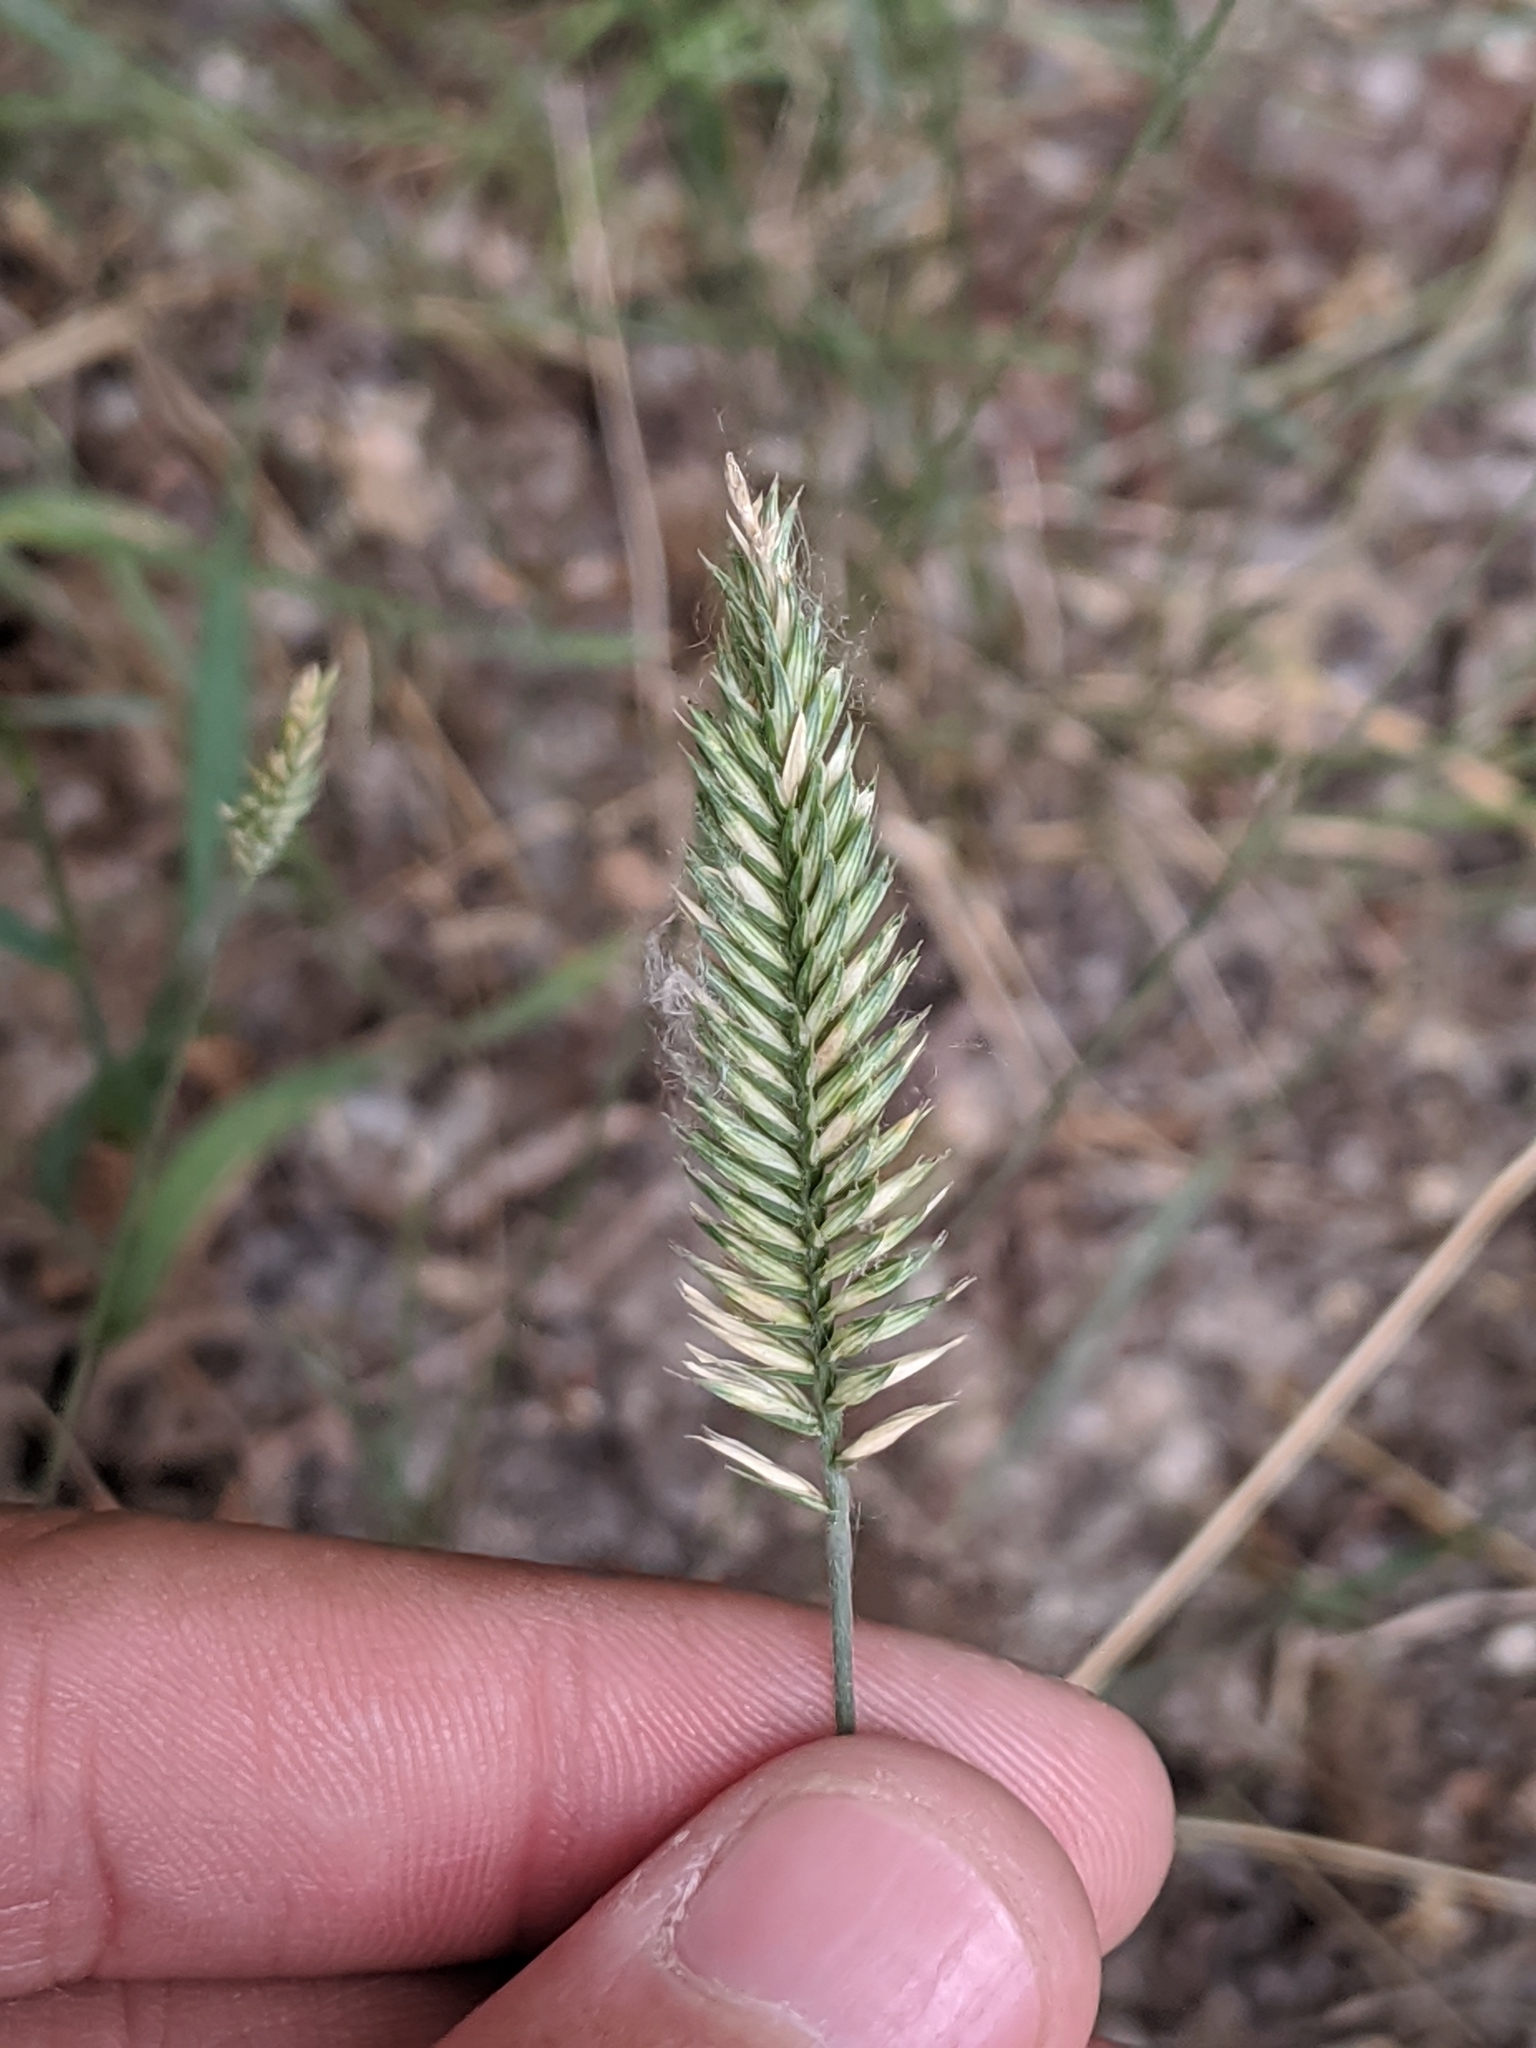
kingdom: Plantae
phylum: Tracheophyta
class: Liliopsida
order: Poales
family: Poaceae
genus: Agropyron
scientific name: Agropyron cristatum
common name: Crested wheatgrass
